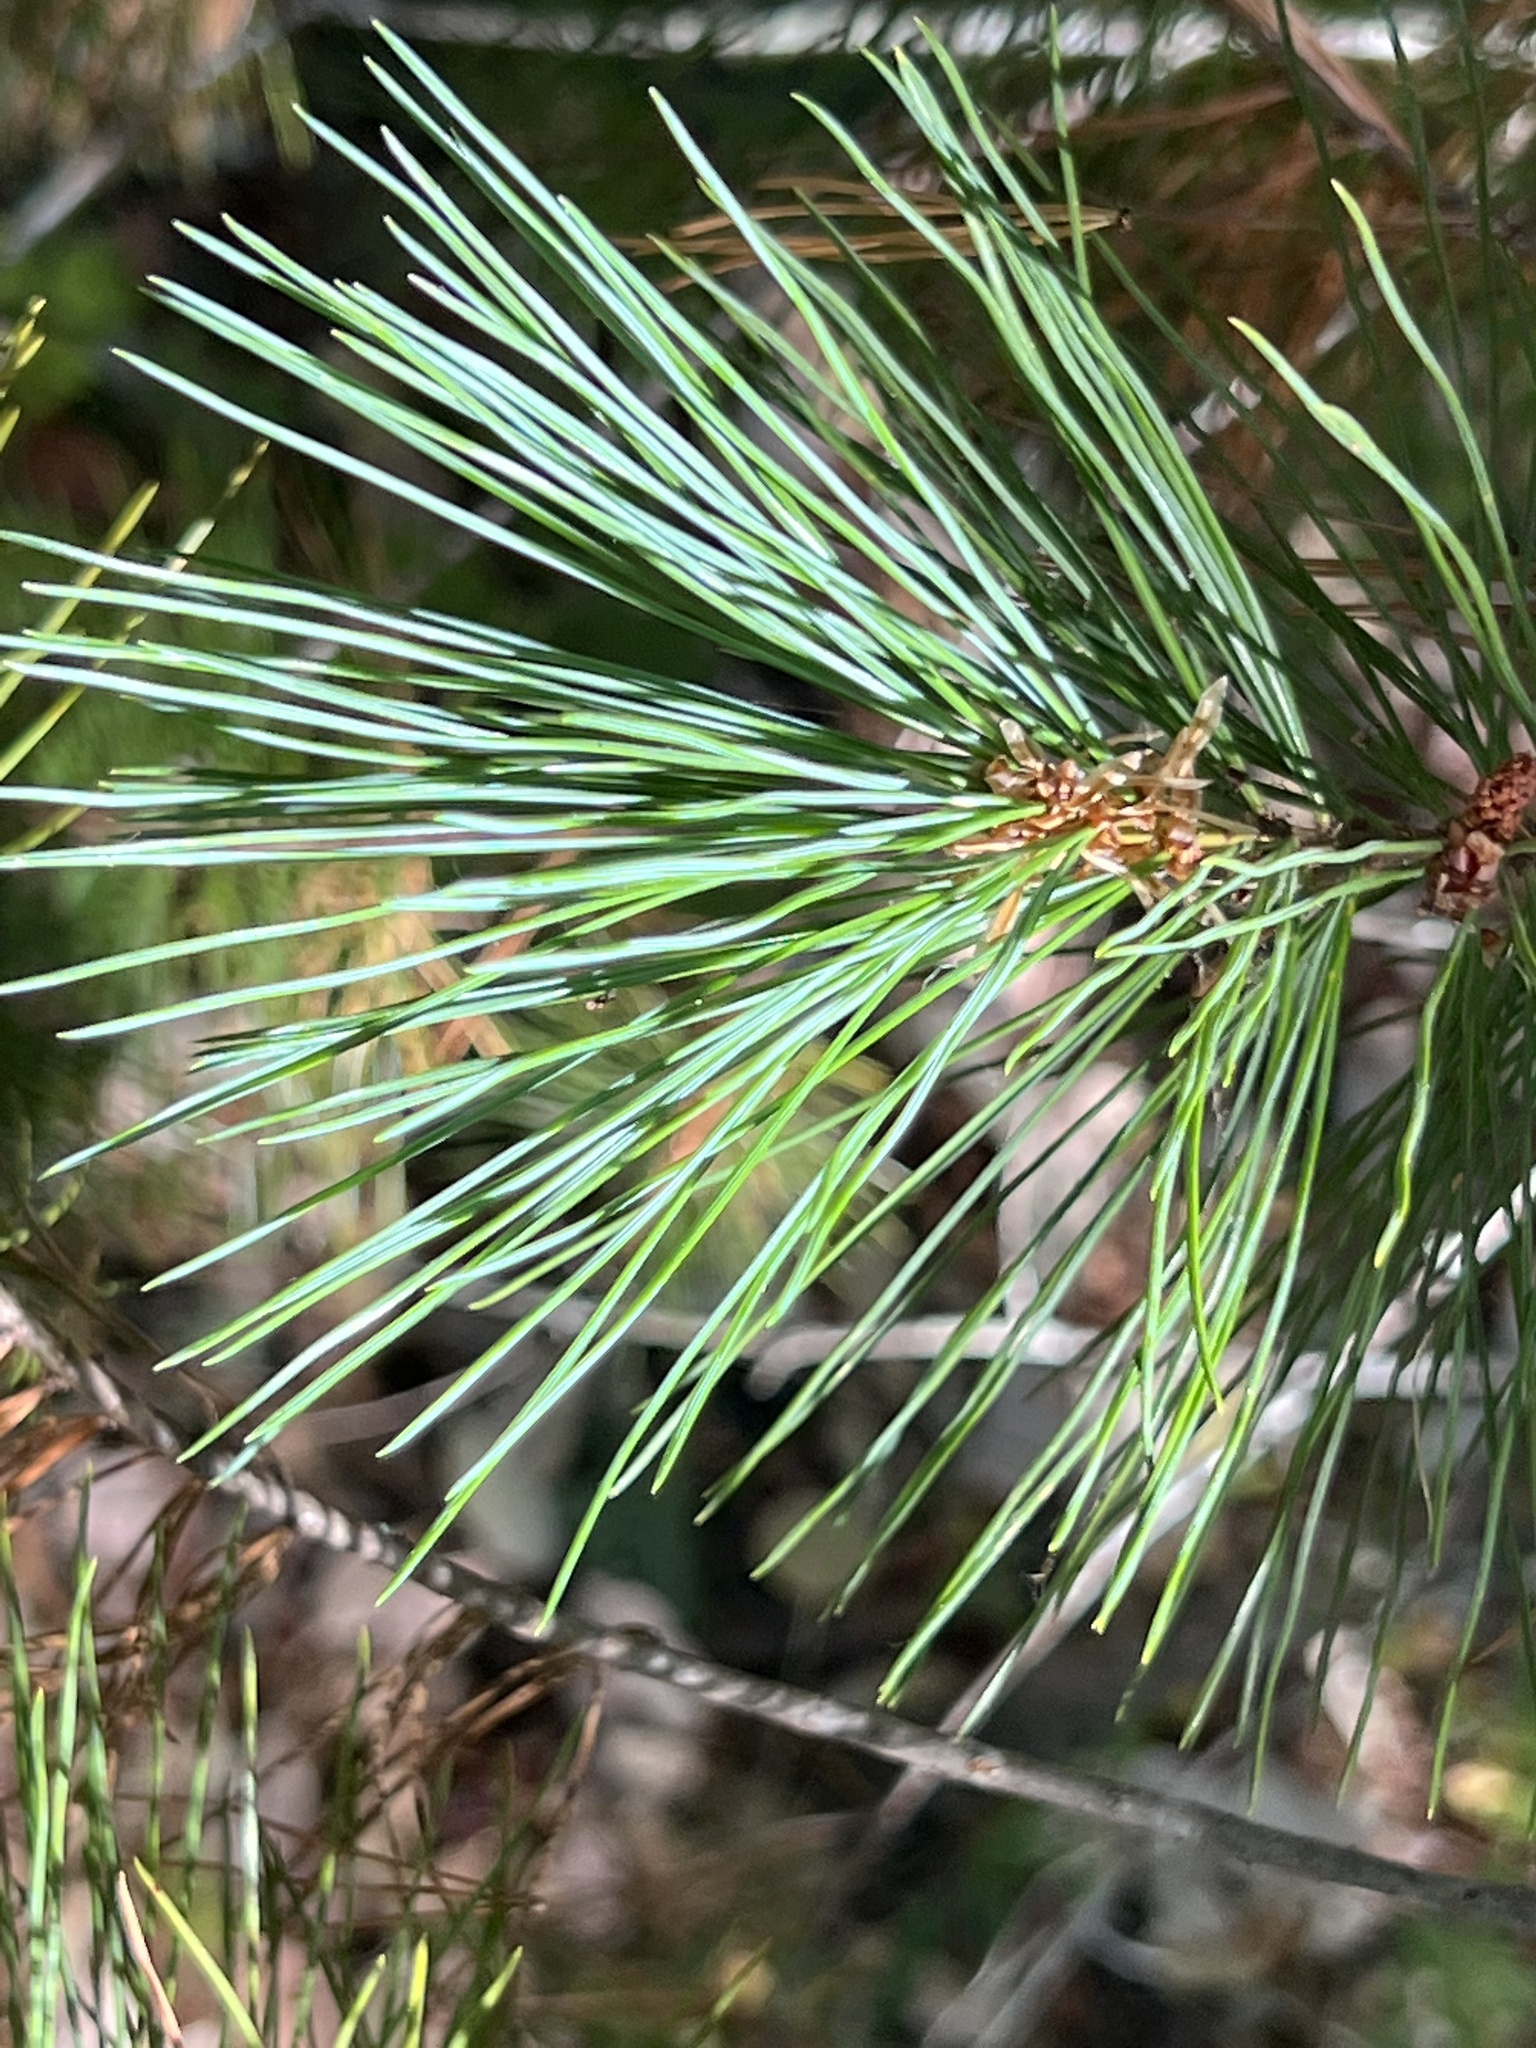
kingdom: Plantae
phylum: Tracheophyta
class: Pinopsida
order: Pinales
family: Pinaceae
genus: Pinus
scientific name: Pinus lambertiana
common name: Sugar pine
